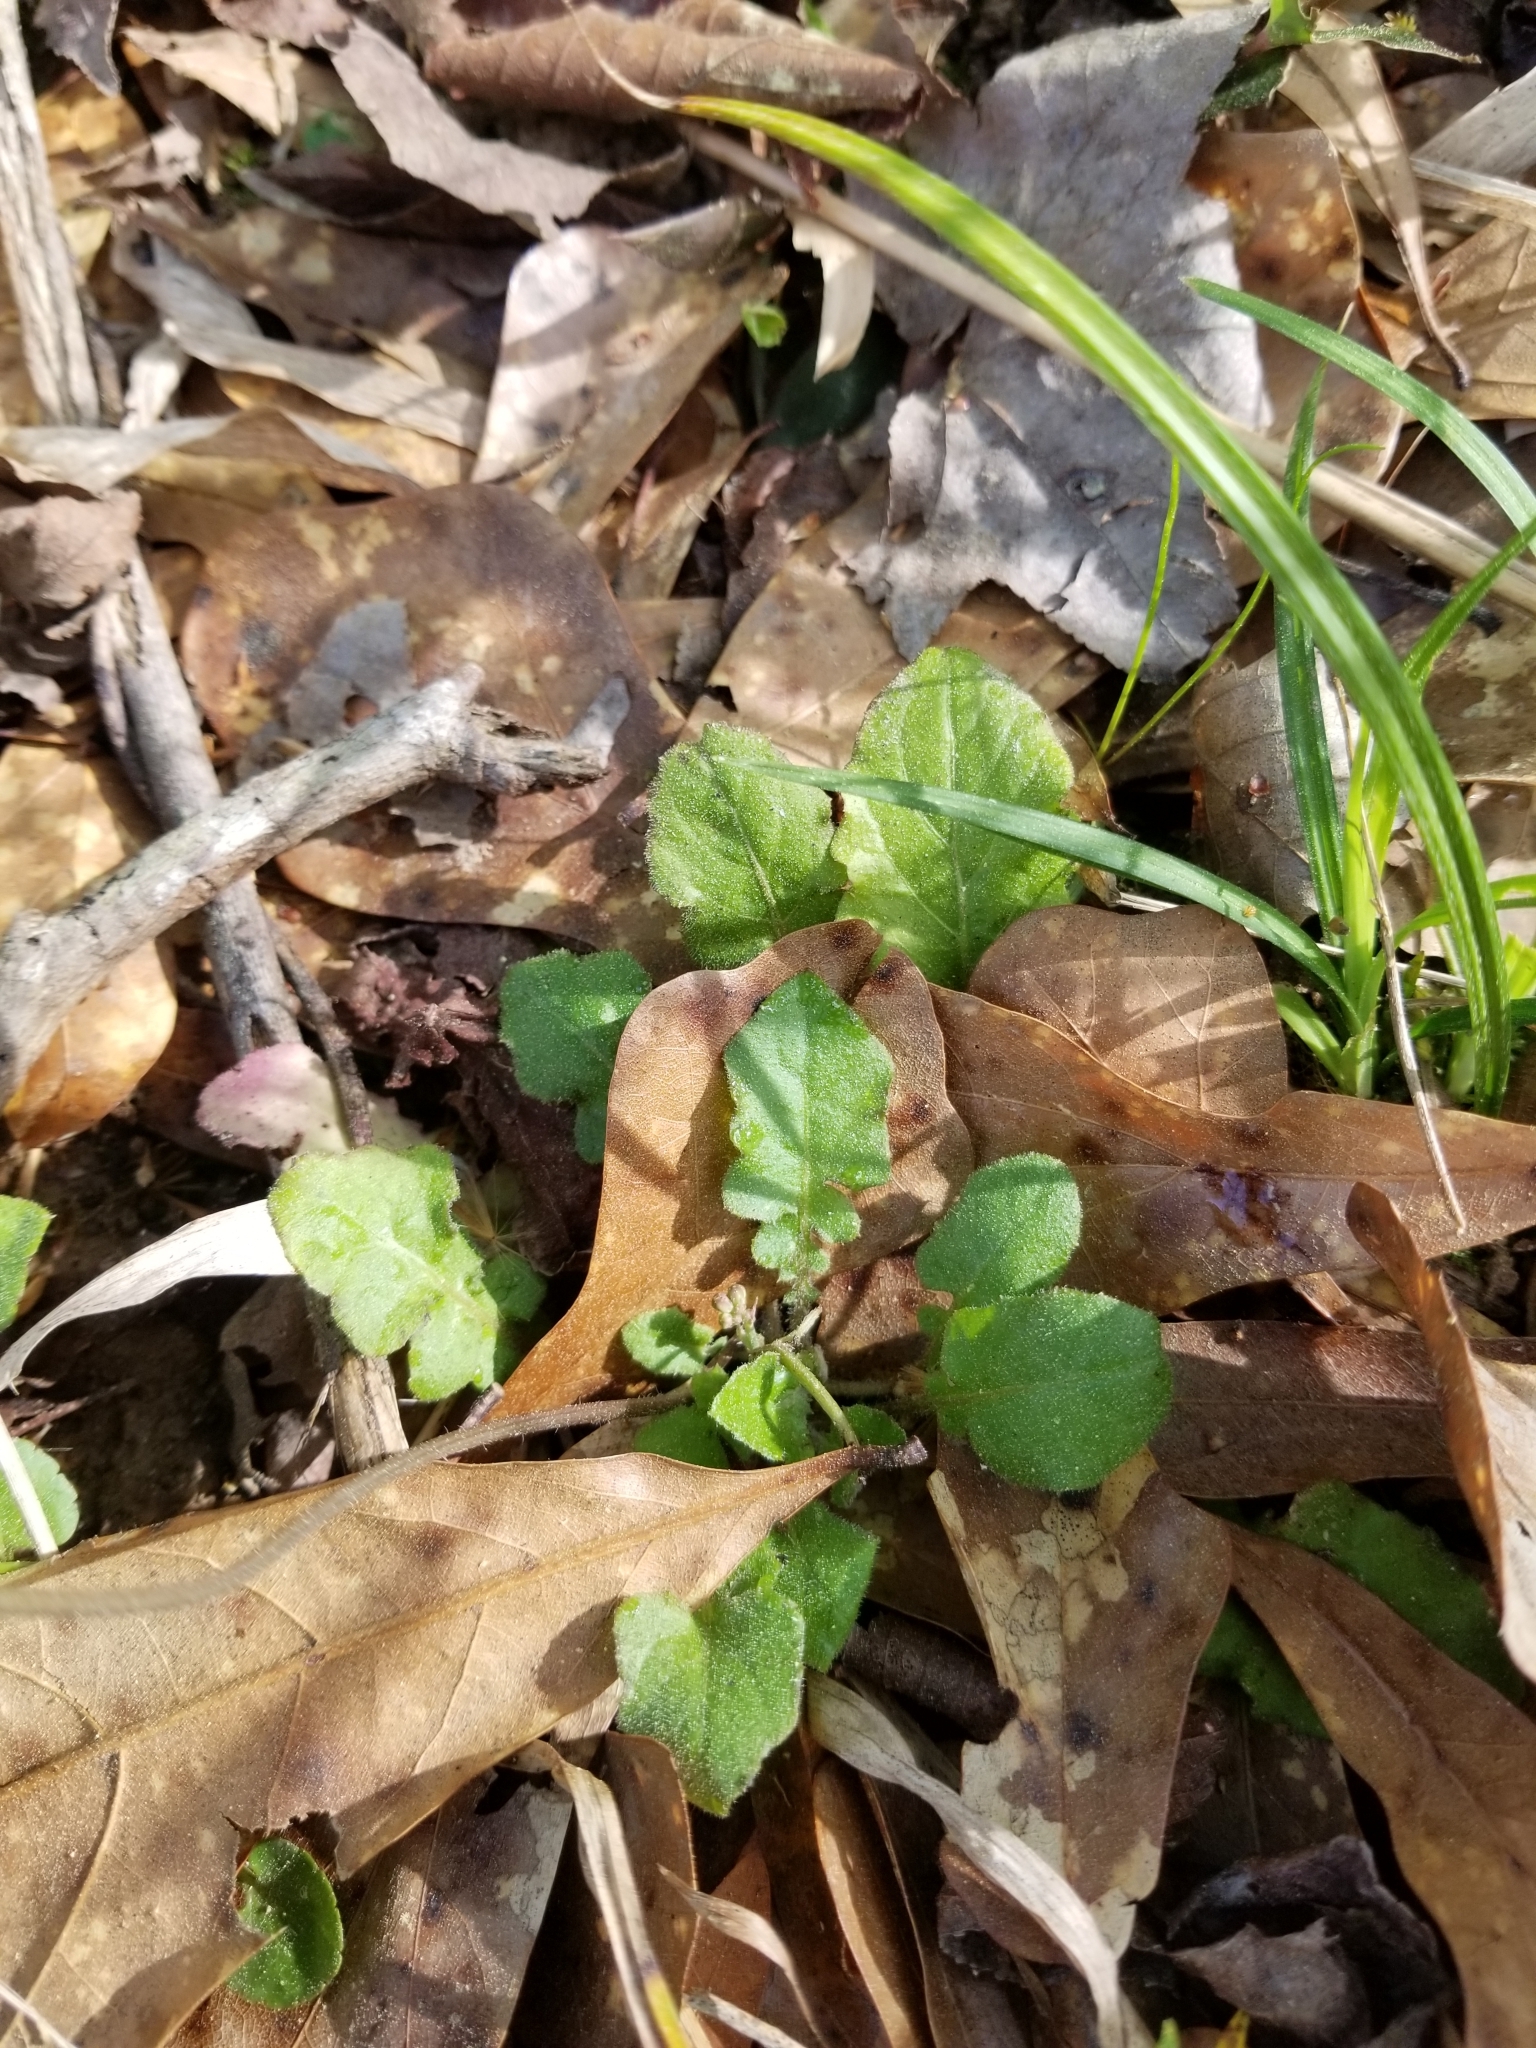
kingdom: Plantae
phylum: Tracheophyta
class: Magnoliopsida
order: Asterales
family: Asteraceae
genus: Youngia
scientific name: Youngia japonica
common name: Oriental false hawksbeard
